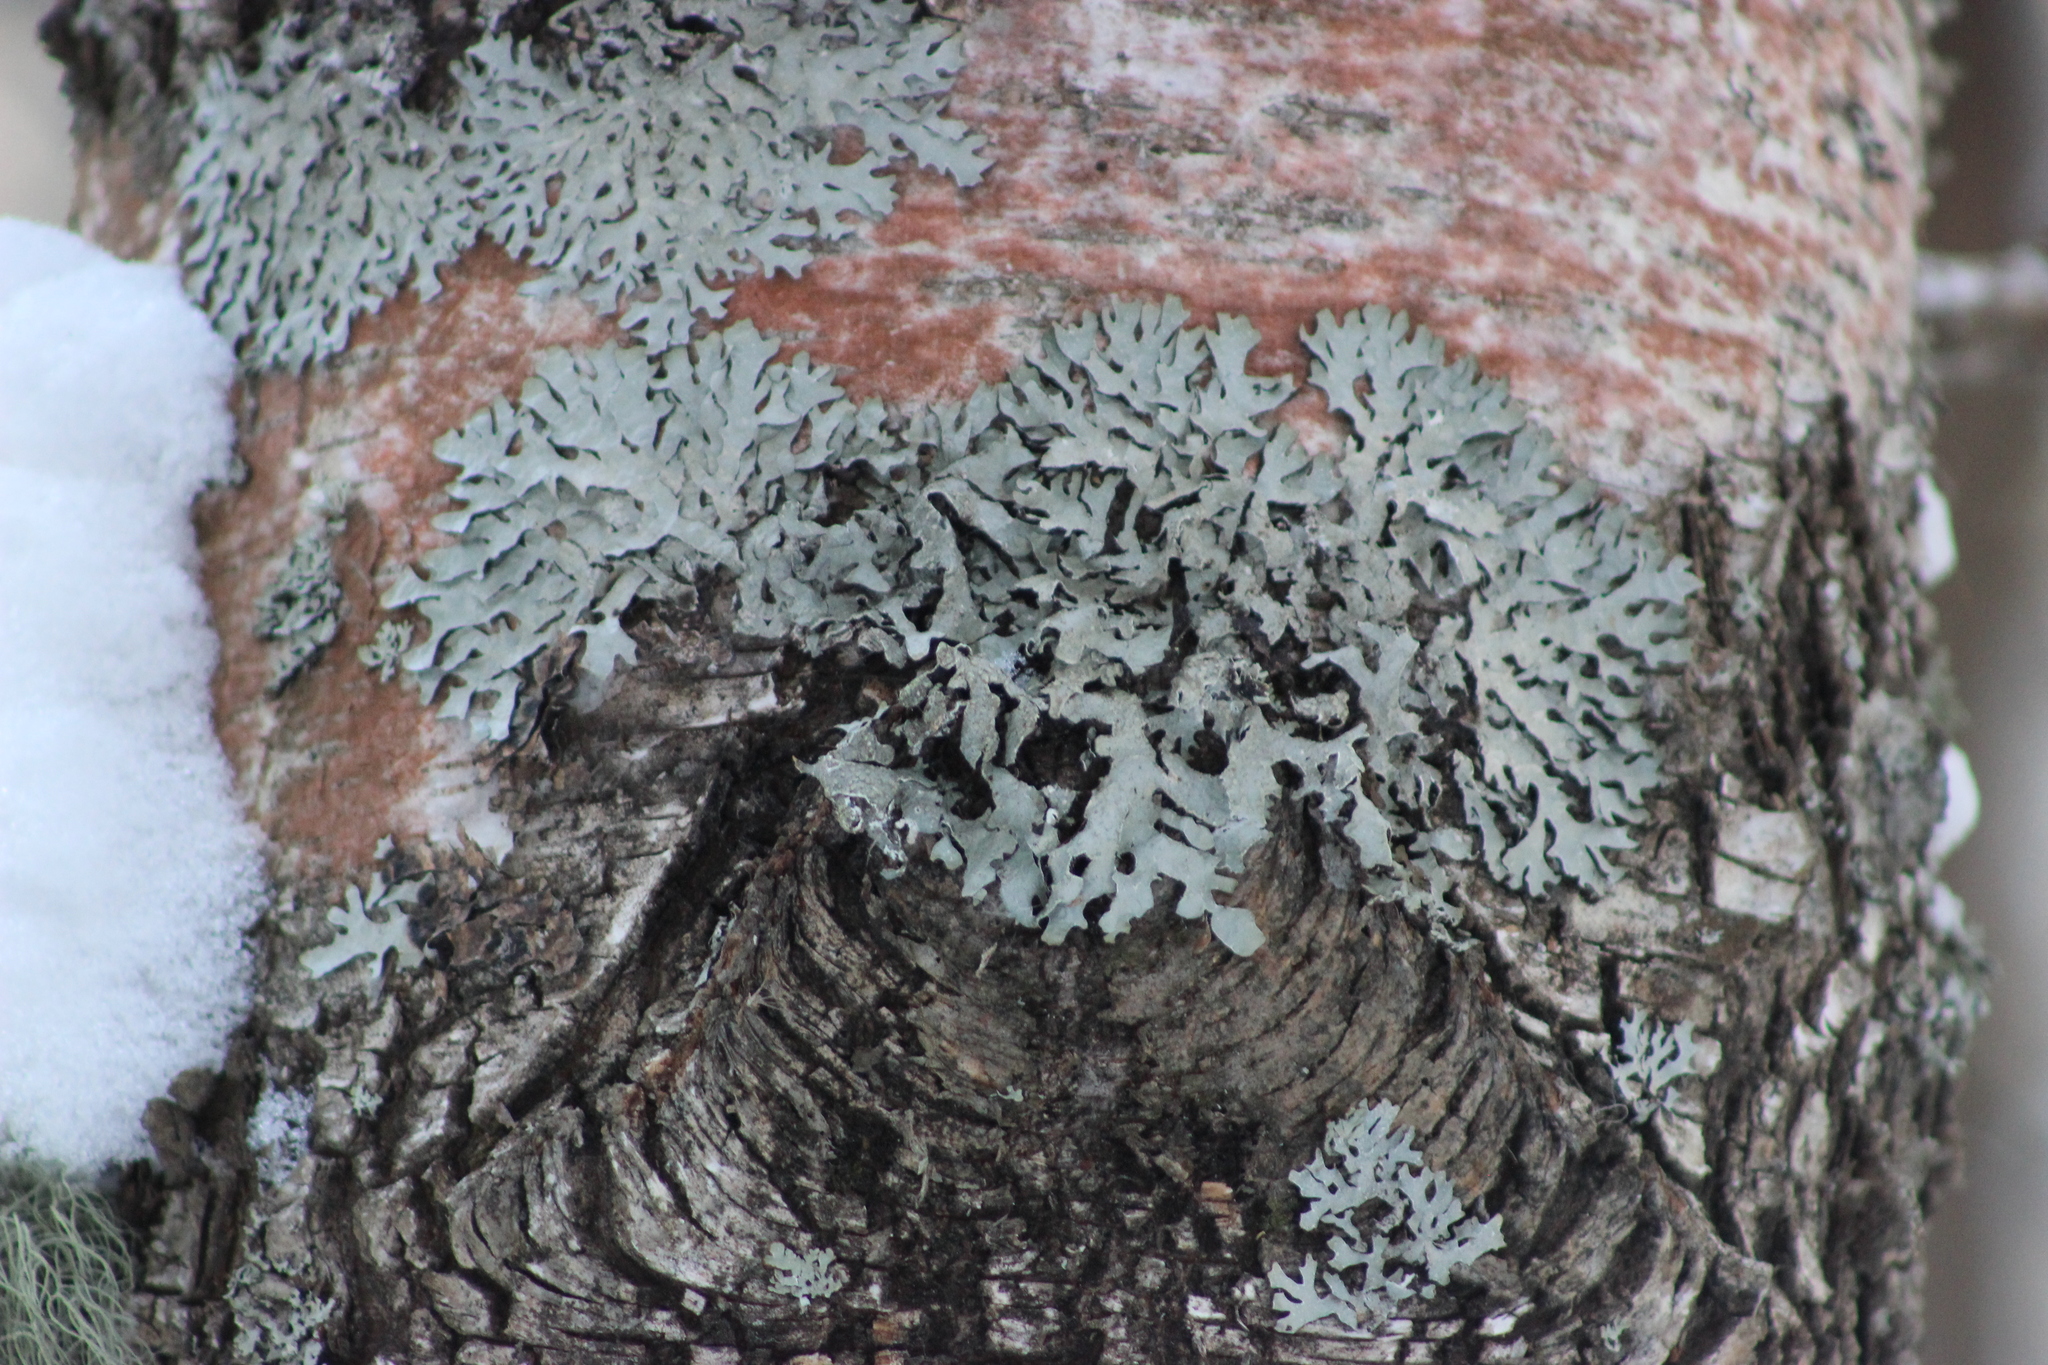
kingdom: Fungi
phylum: Ascomycota
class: Lecanoromycetes
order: Lecanorales
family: Parmeliaceae
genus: Parmelia
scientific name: Parmelia sulcata
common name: Netted shield lichen
